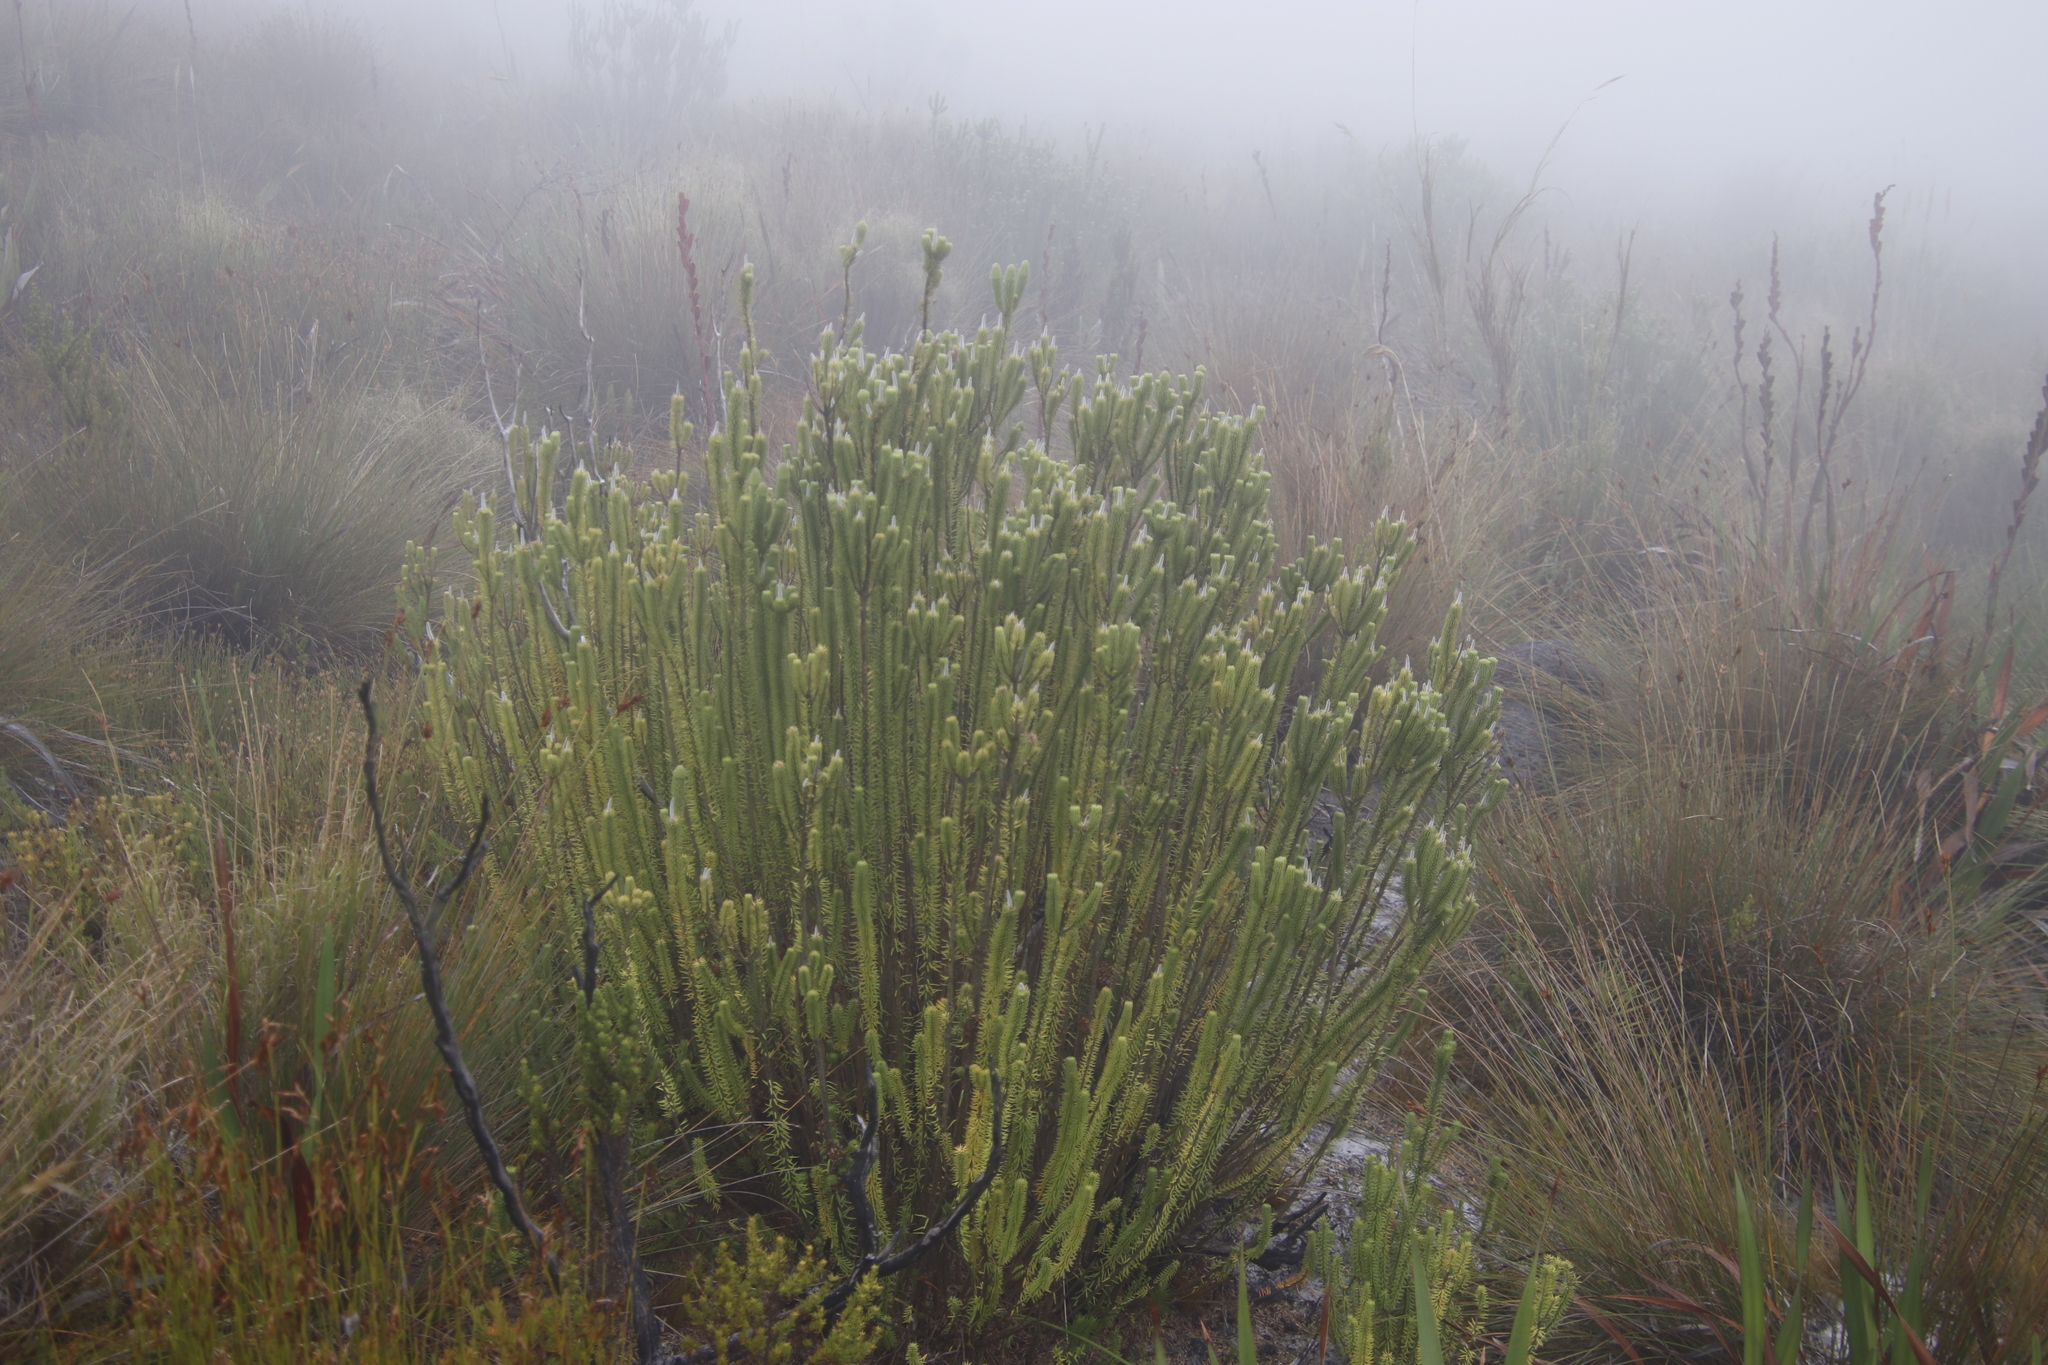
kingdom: Plantae
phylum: Tracheophyta
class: Magnoliopsida
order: Lamiales
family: Stilbaceae
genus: Stilbe
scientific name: Stilbe vestita
